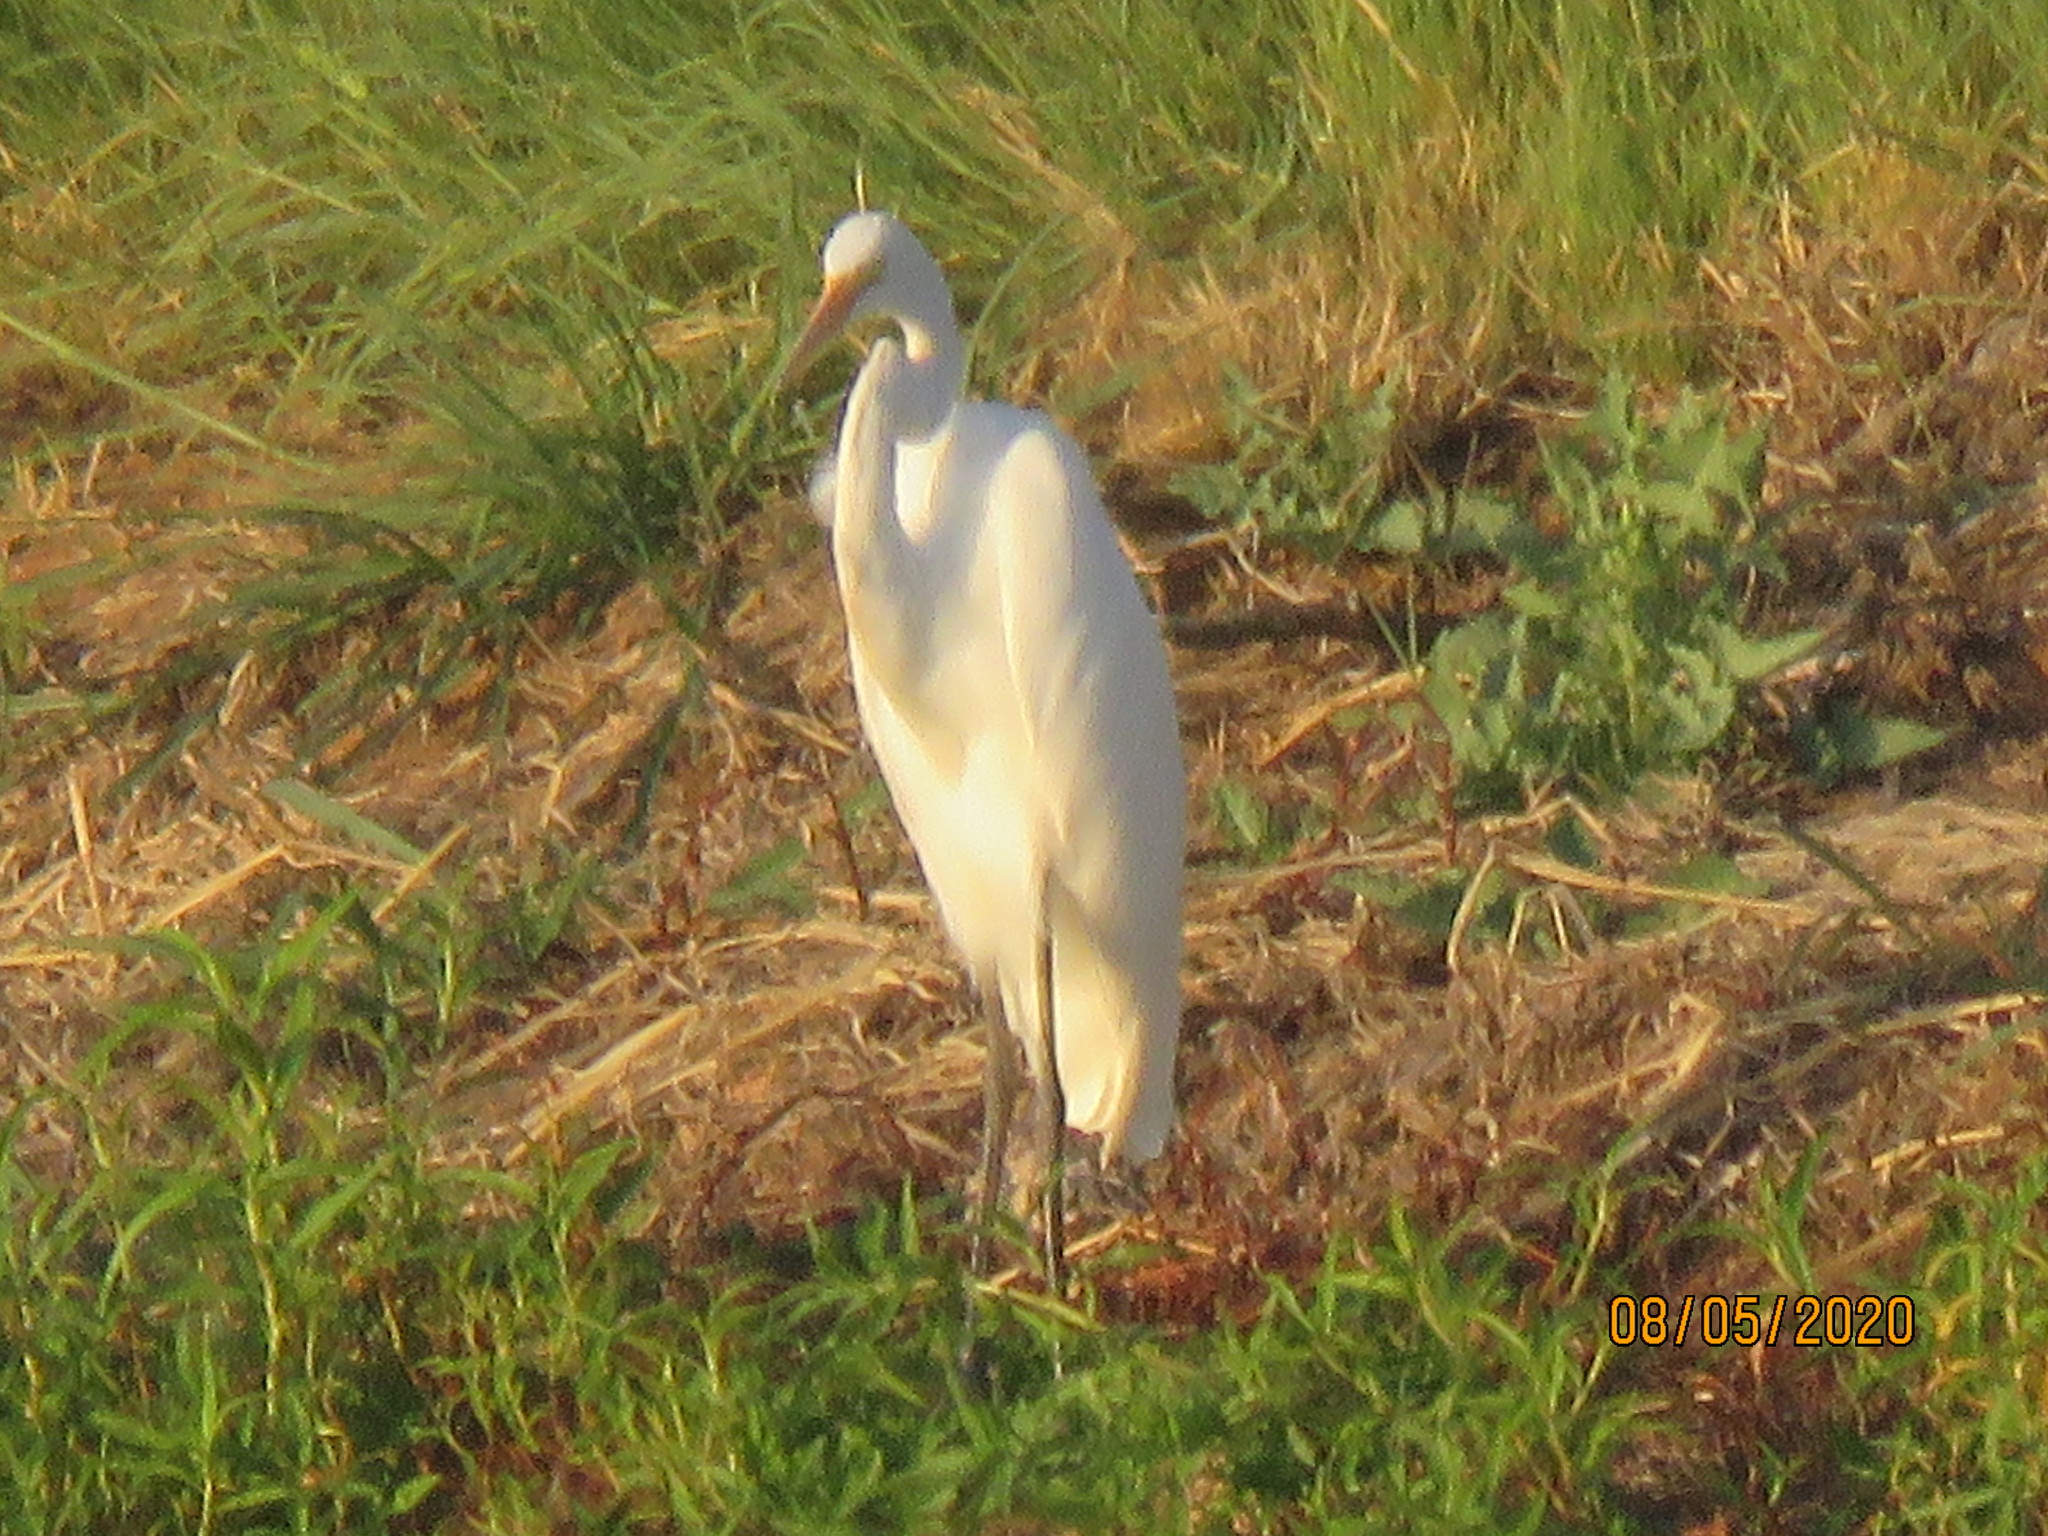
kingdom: Animalia
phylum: Chordata
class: Aves
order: Pelecaniformes
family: Ardeidae
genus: Ardea
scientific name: Ardea alba
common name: Great egret
